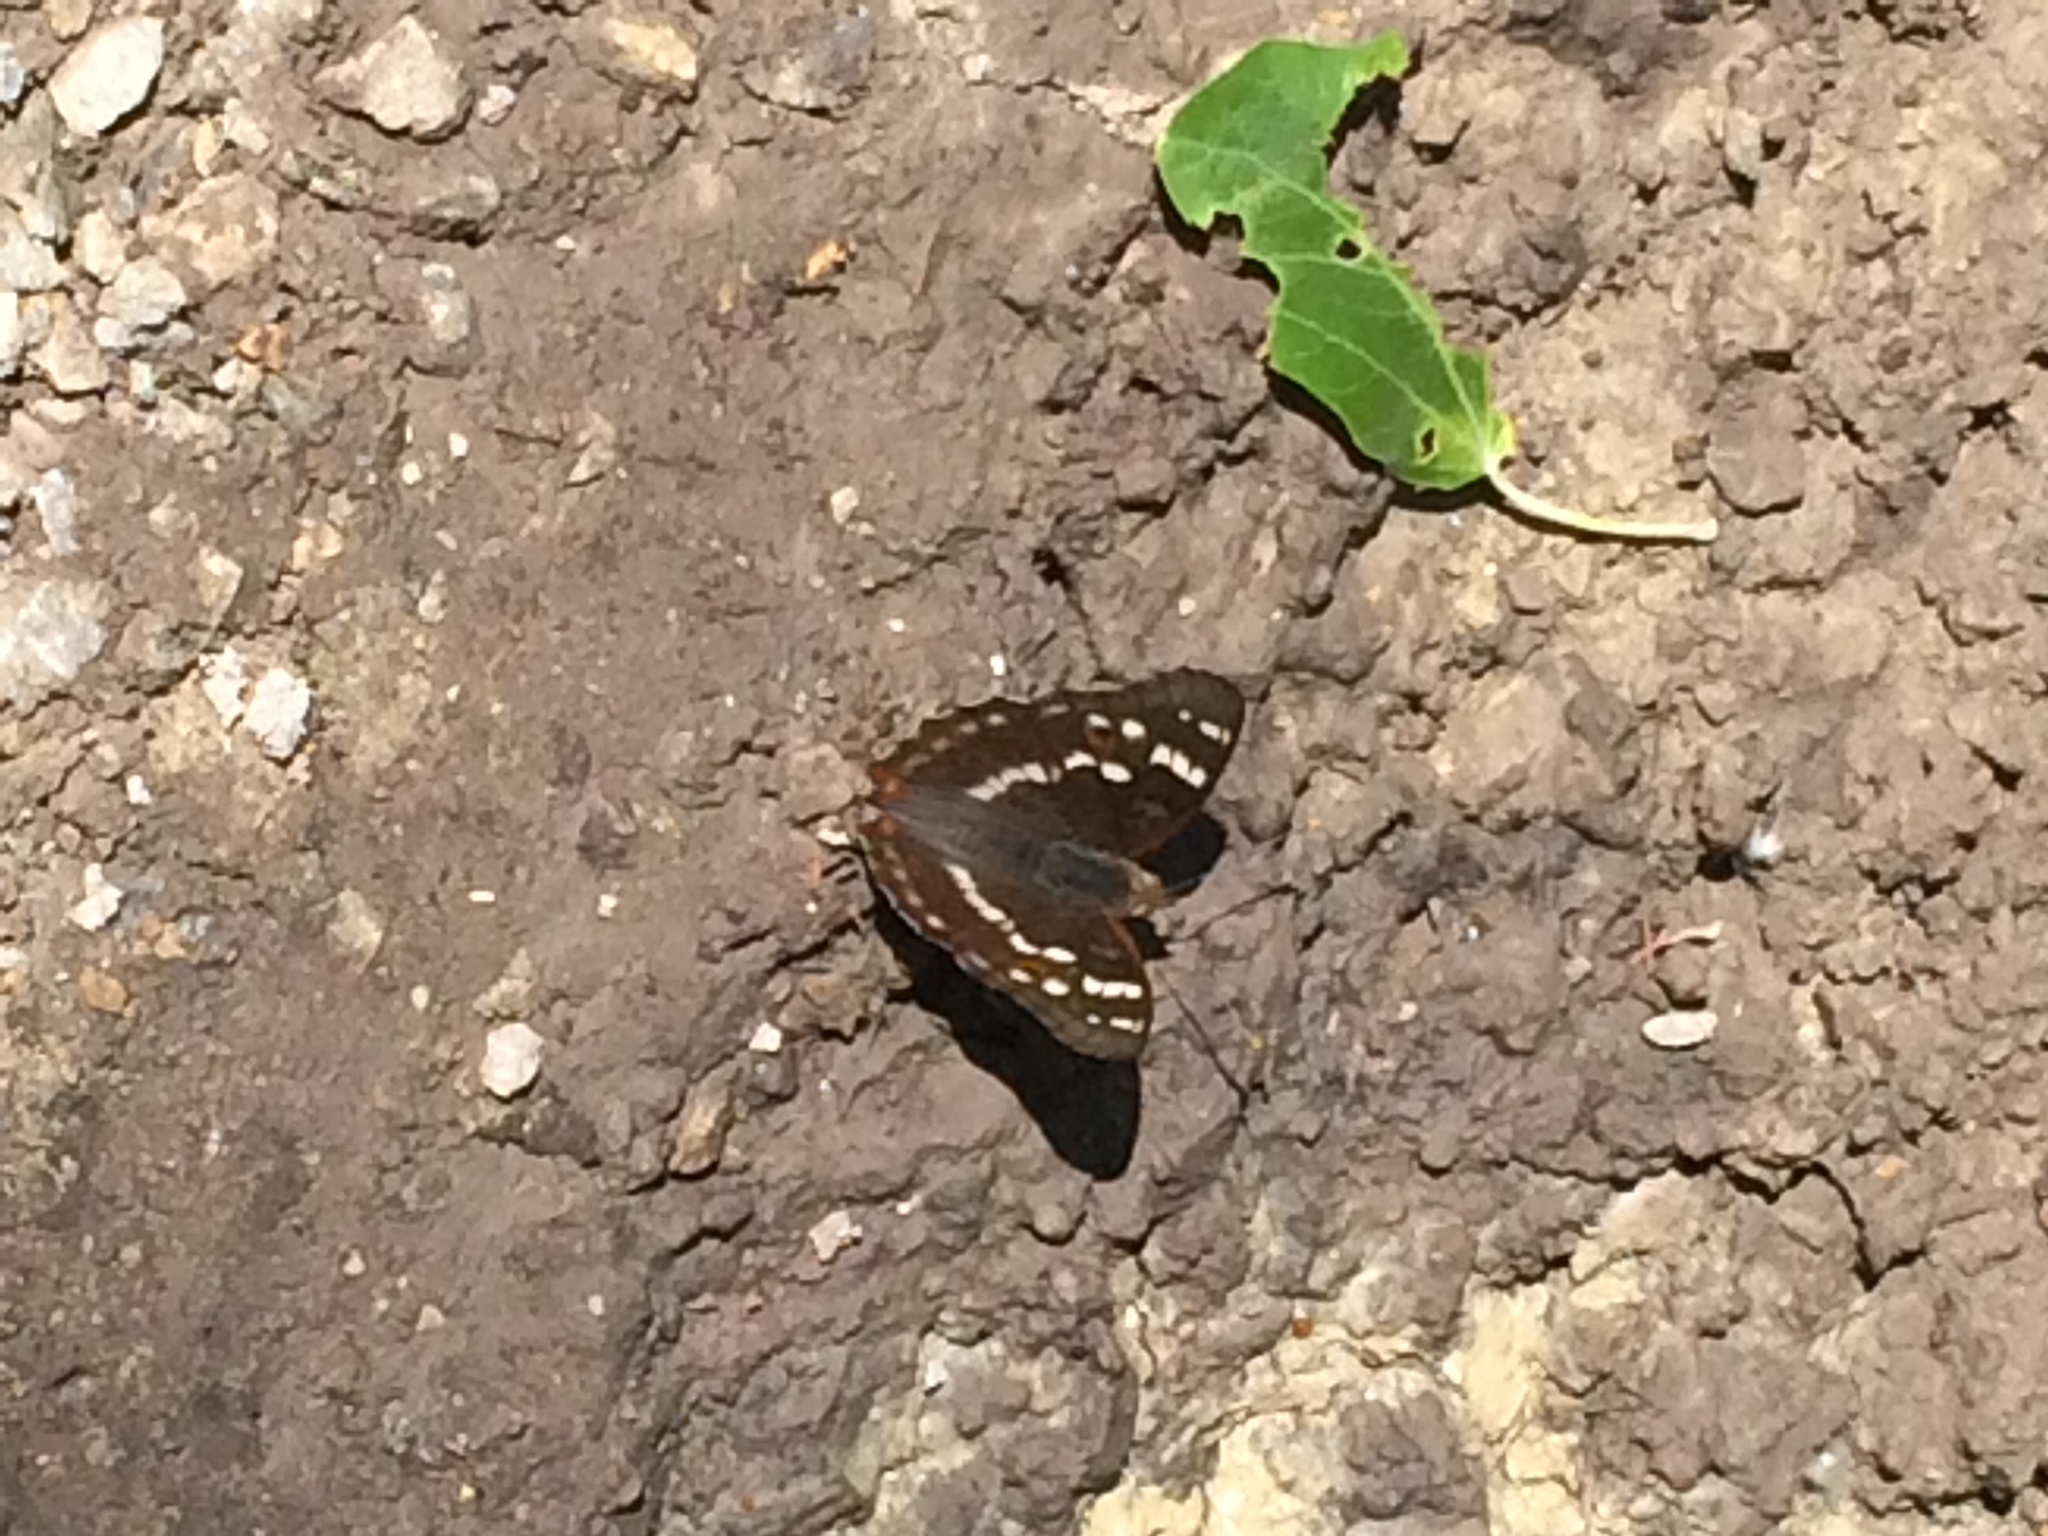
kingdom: Animalia
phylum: Arthropoda
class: Insecta
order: Lepidoptera
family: Nymphalidae
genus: Apatura
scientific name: Apatura ilia
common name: Lesser purple emperor
